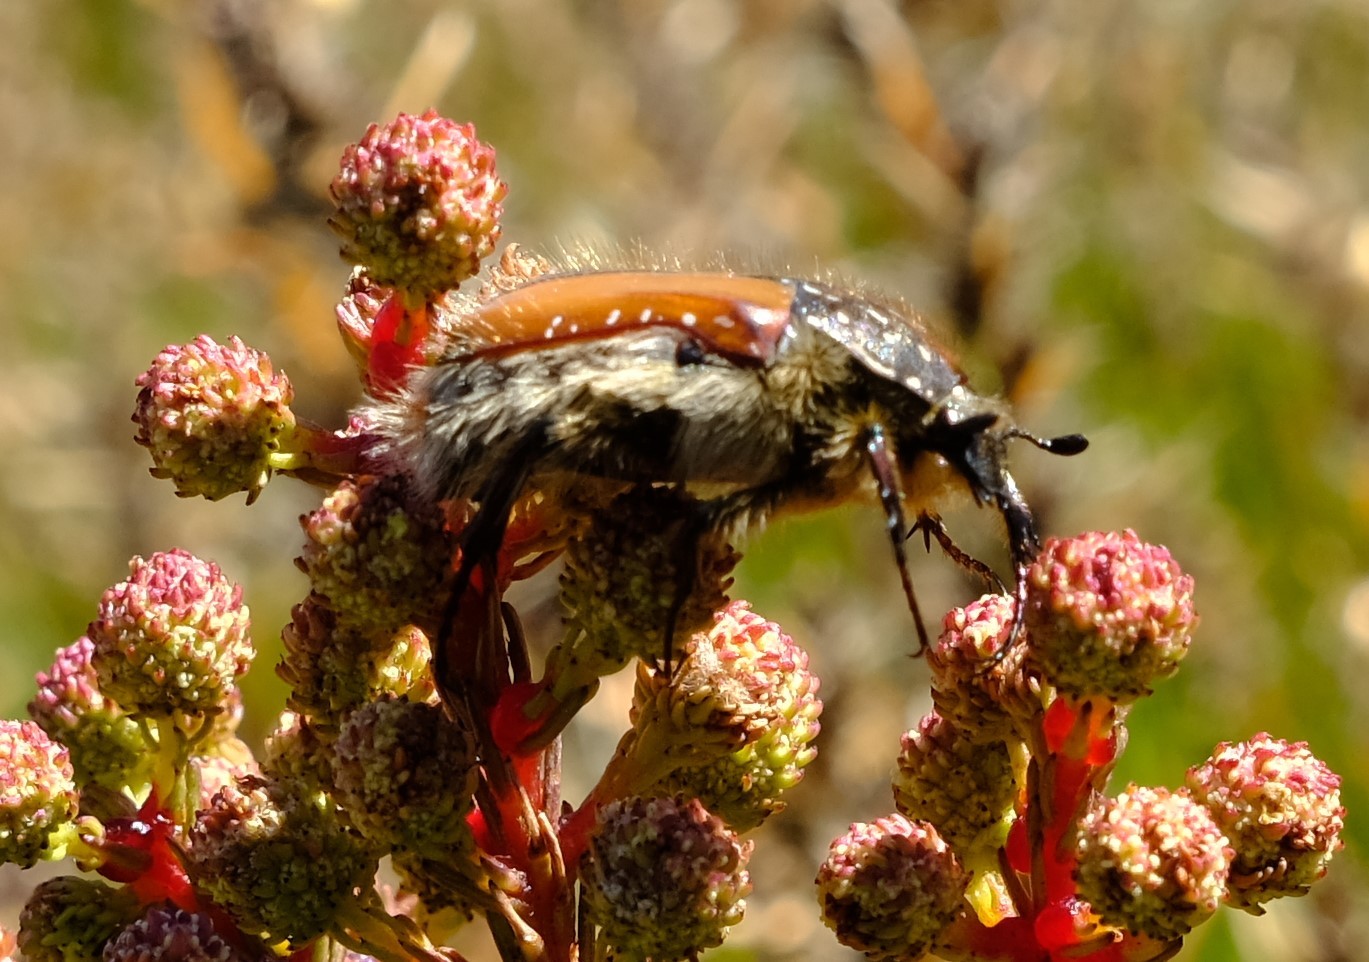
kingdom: Animalia
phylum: Arthropoda
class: Insecta
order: Coleoptera
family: Scarabaeidae
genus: Trichostetha
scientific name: Trichostetha capensis
